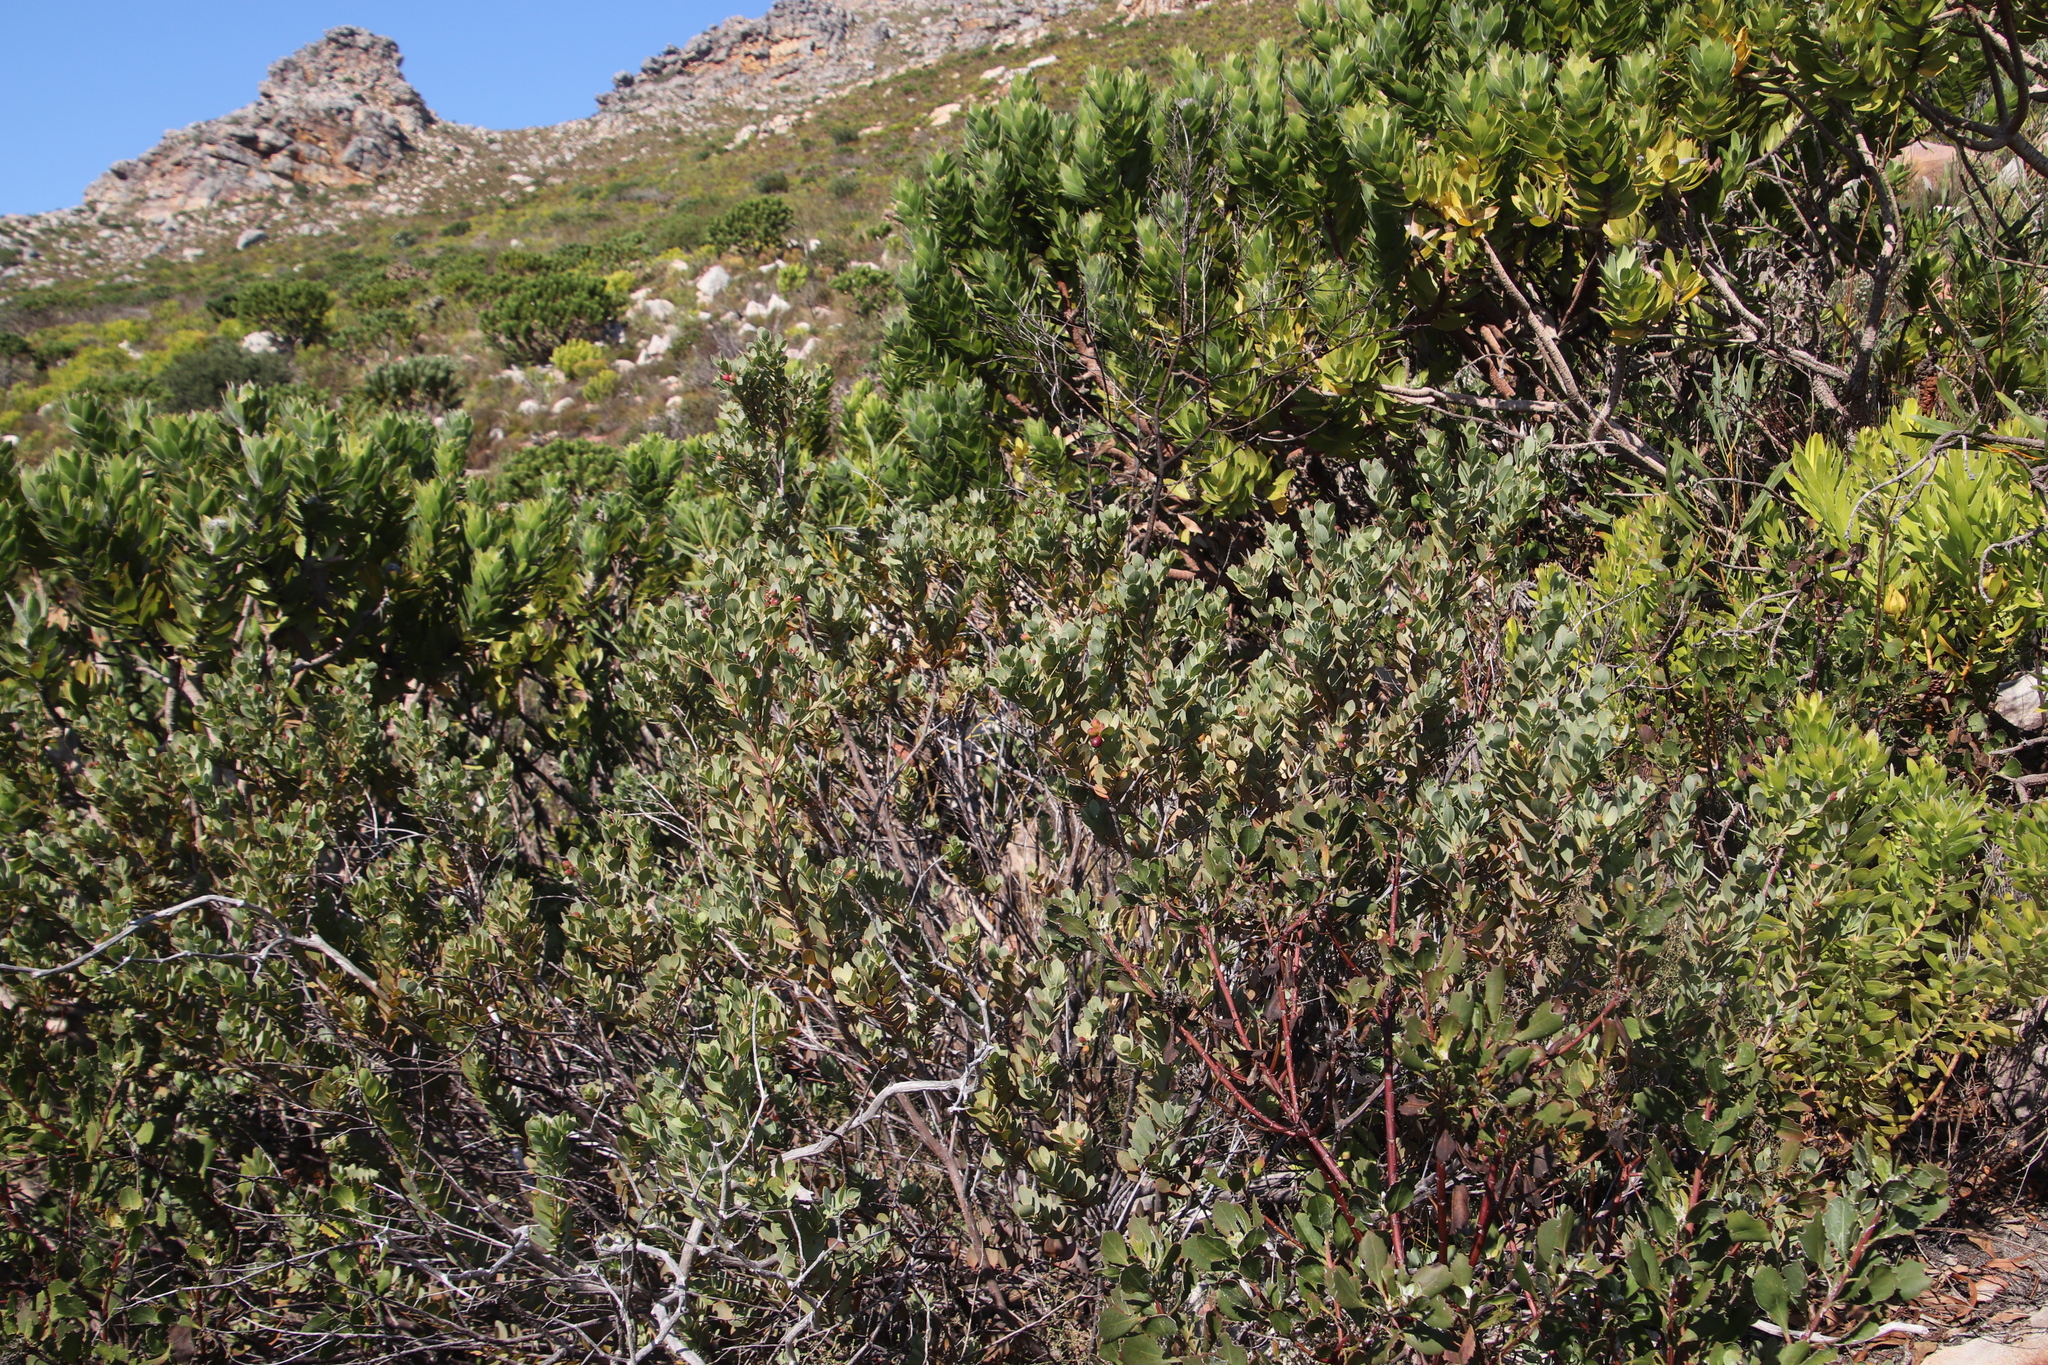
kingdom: Plantae
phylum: Tracheophyta
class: Magnoliopsida
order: Santalales
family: Santalaceae
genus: Osyris
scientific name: Osyris compressa
